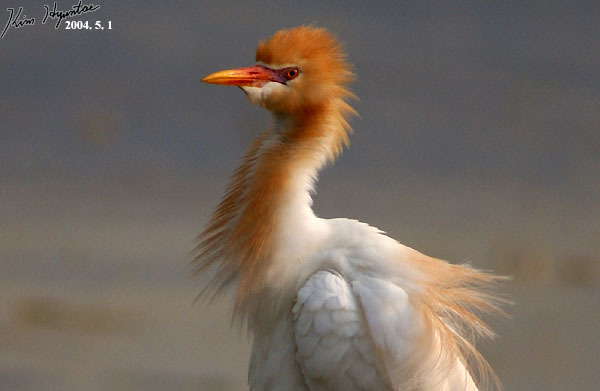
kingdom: Animalia
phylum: Chordata
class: Aves
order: Pelecaniformes
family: Ardeidae
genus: Bubulcus
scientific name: Bubulcus coromandus
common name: Eastern cattle egret
